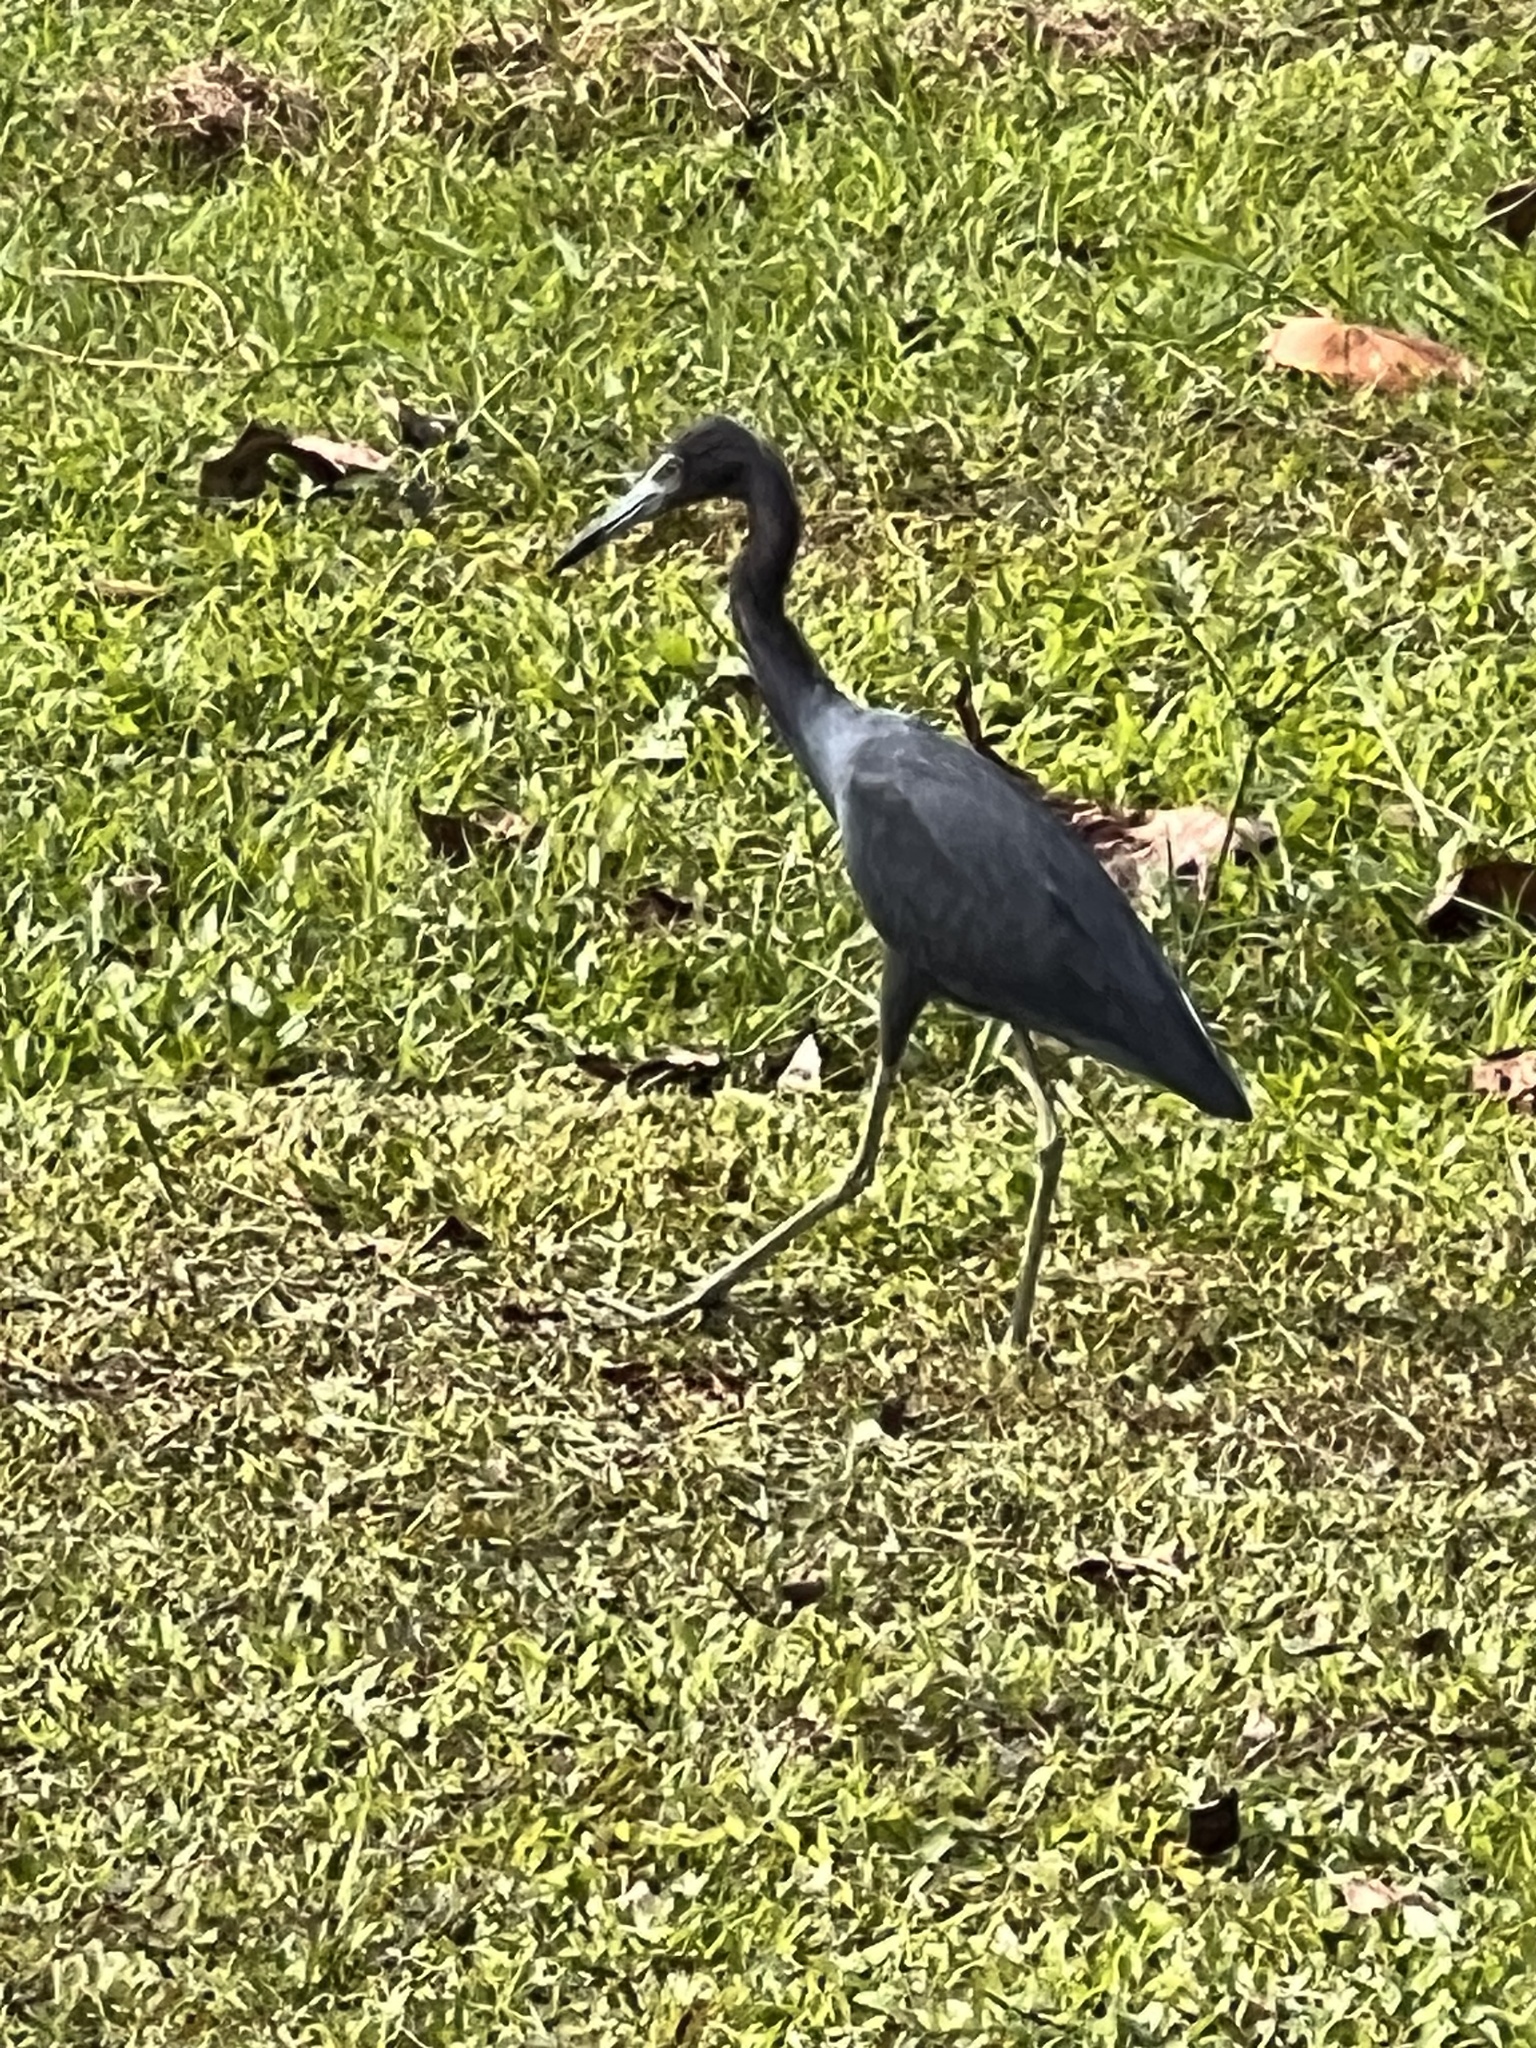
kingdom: Animalia
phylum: Chordata
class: Aves
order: Pelecaniformes
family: Ardeidae
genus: Egretta
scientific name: Egretta caerulea
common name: Little blue heron
